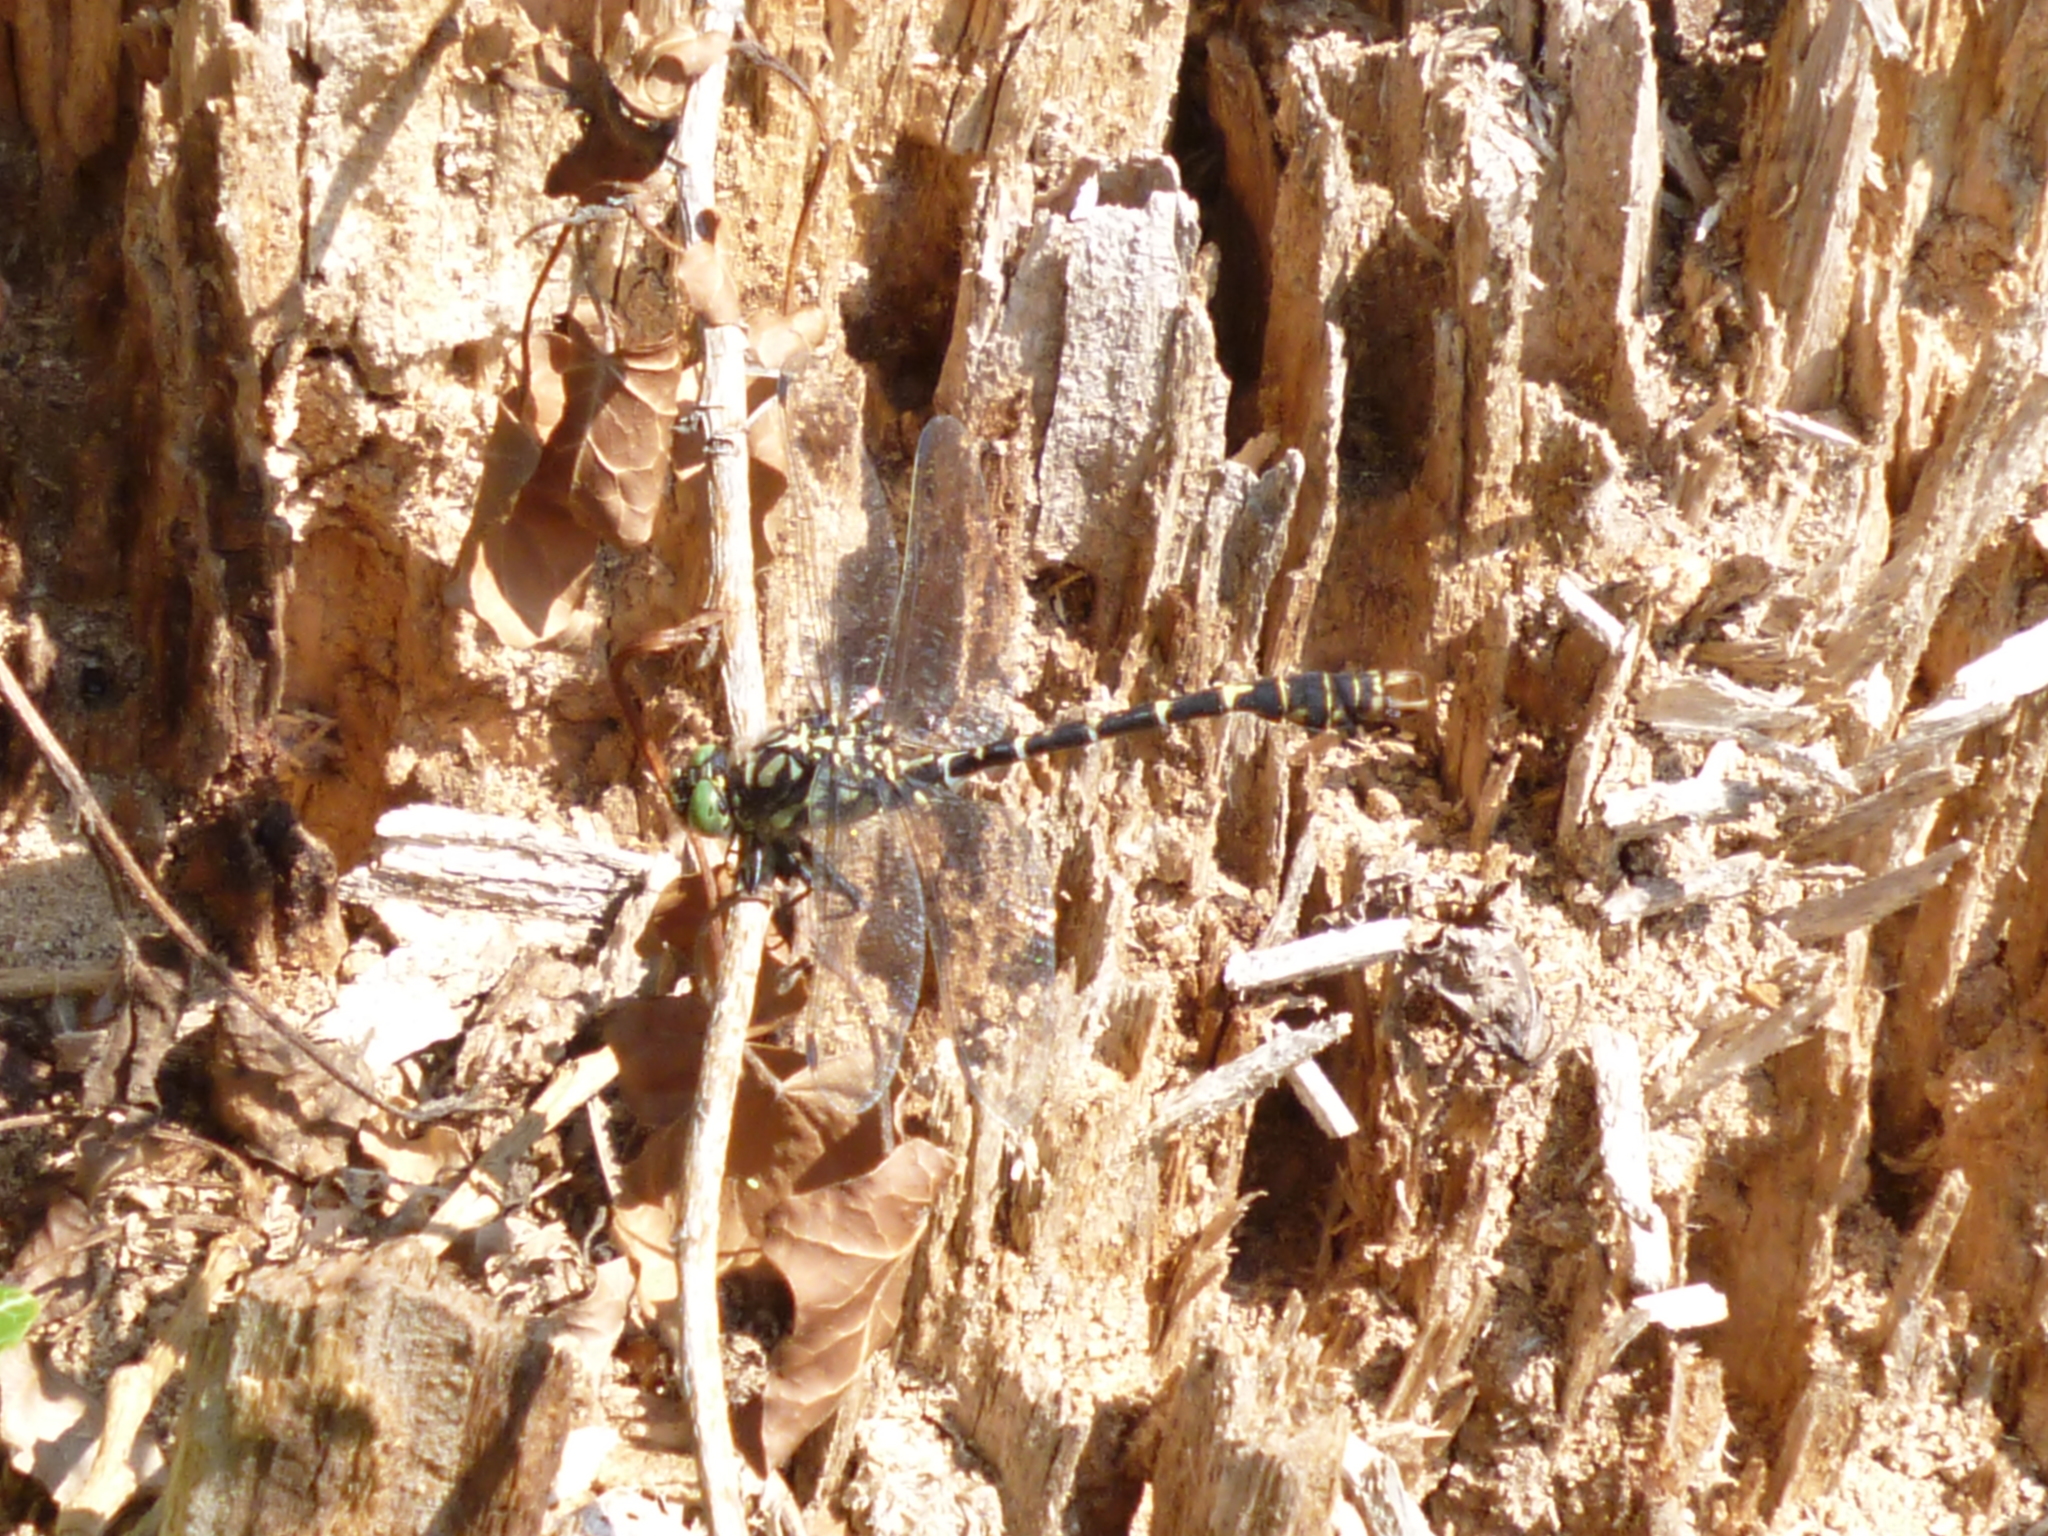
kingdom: Animalia
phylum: Arthropoda
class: Insecta
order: Odonata
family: Gomphidae
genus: Onychogomphus
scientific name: Onychogomphus forcipatus
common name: Small pincertail
